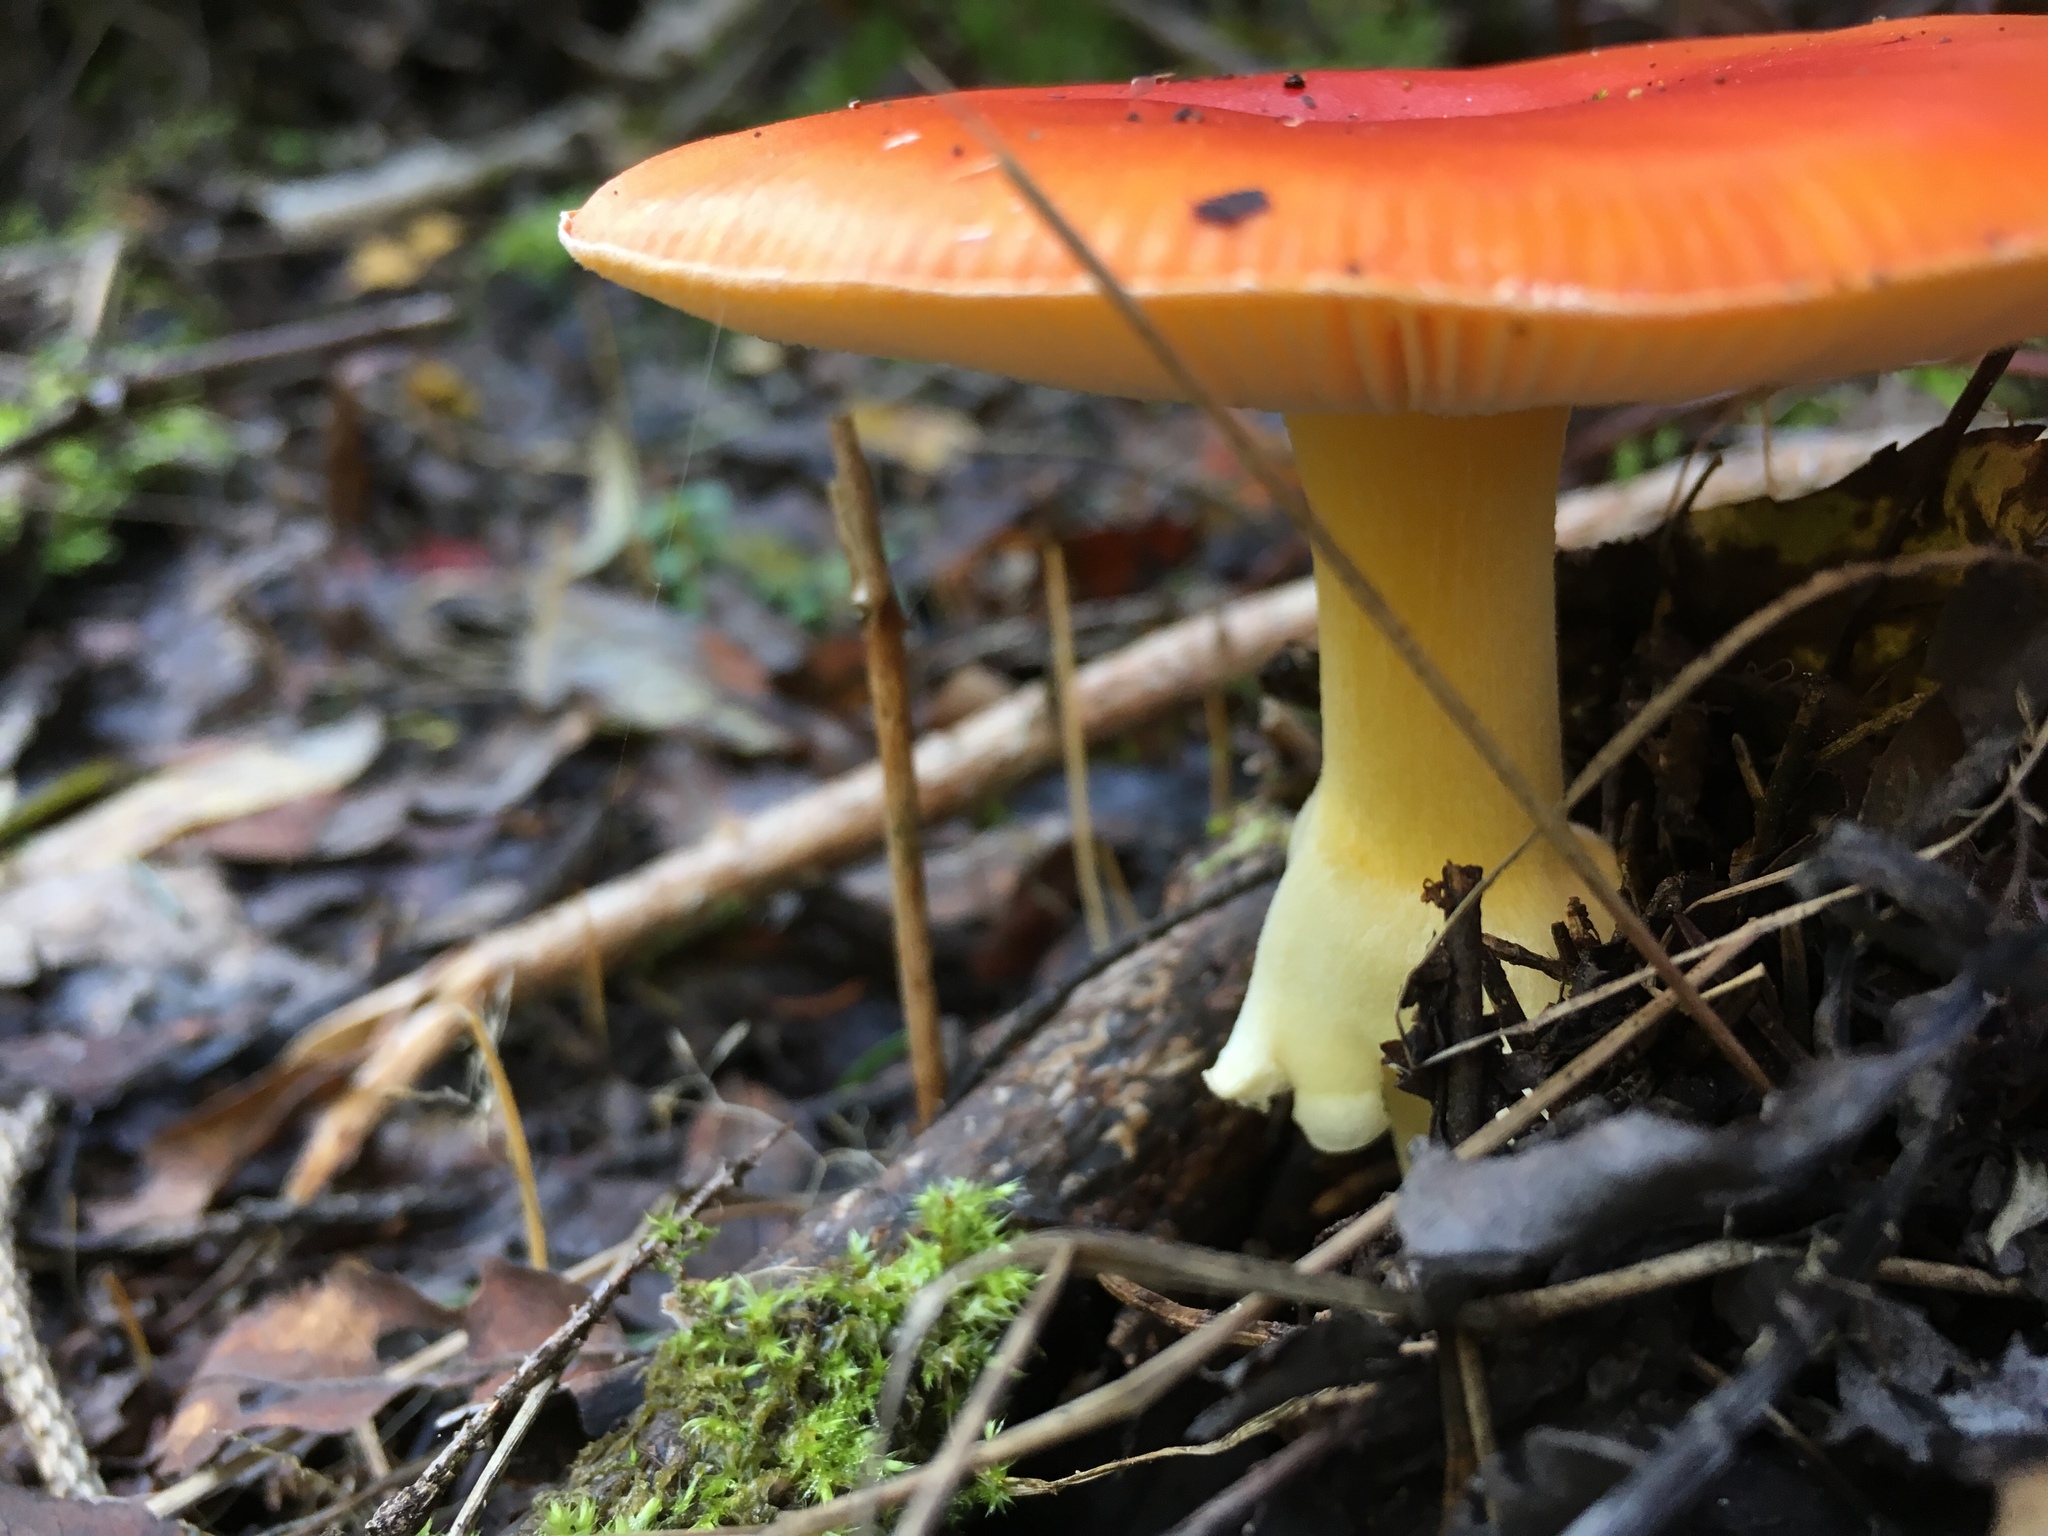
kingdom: Fungi
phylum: Basidiomycota
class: Agaricomycetes
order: Agaricales
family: Amanitaceae
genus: Amanita
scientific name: Amanita muscaria
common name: Fly agaric
